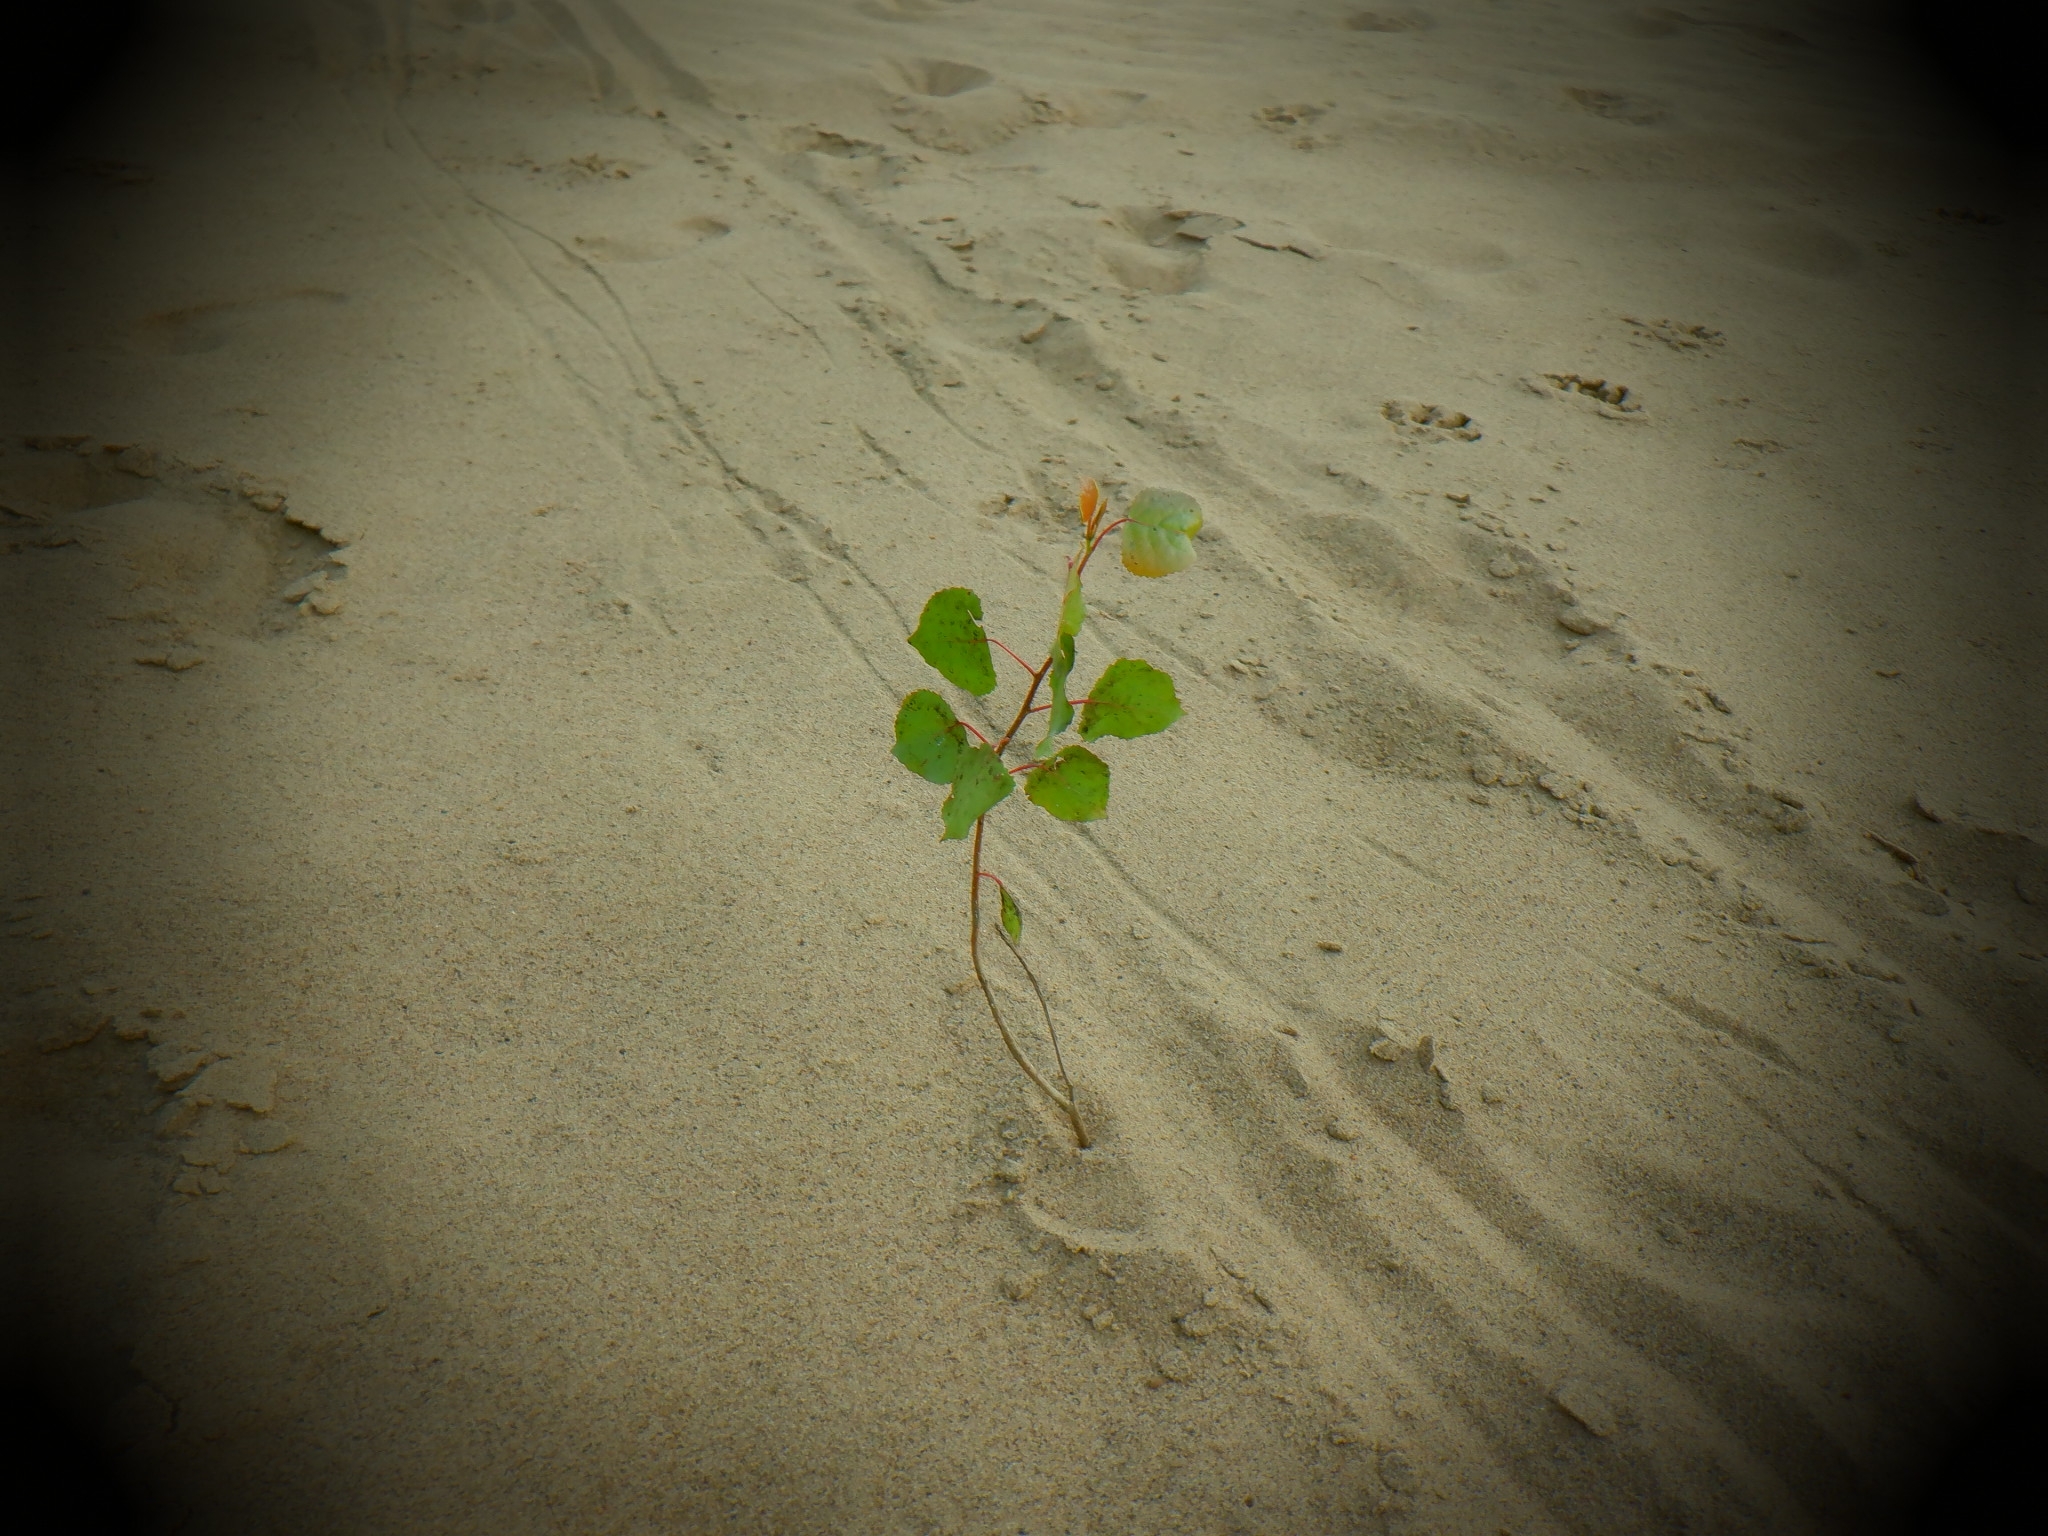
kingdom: Plantae
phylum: Tracheophyta
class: Magnoliopsida
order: Malpighiales
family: Salicaceae
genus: Populus
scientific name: Populus deltoides
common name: Eastern cottonwood
